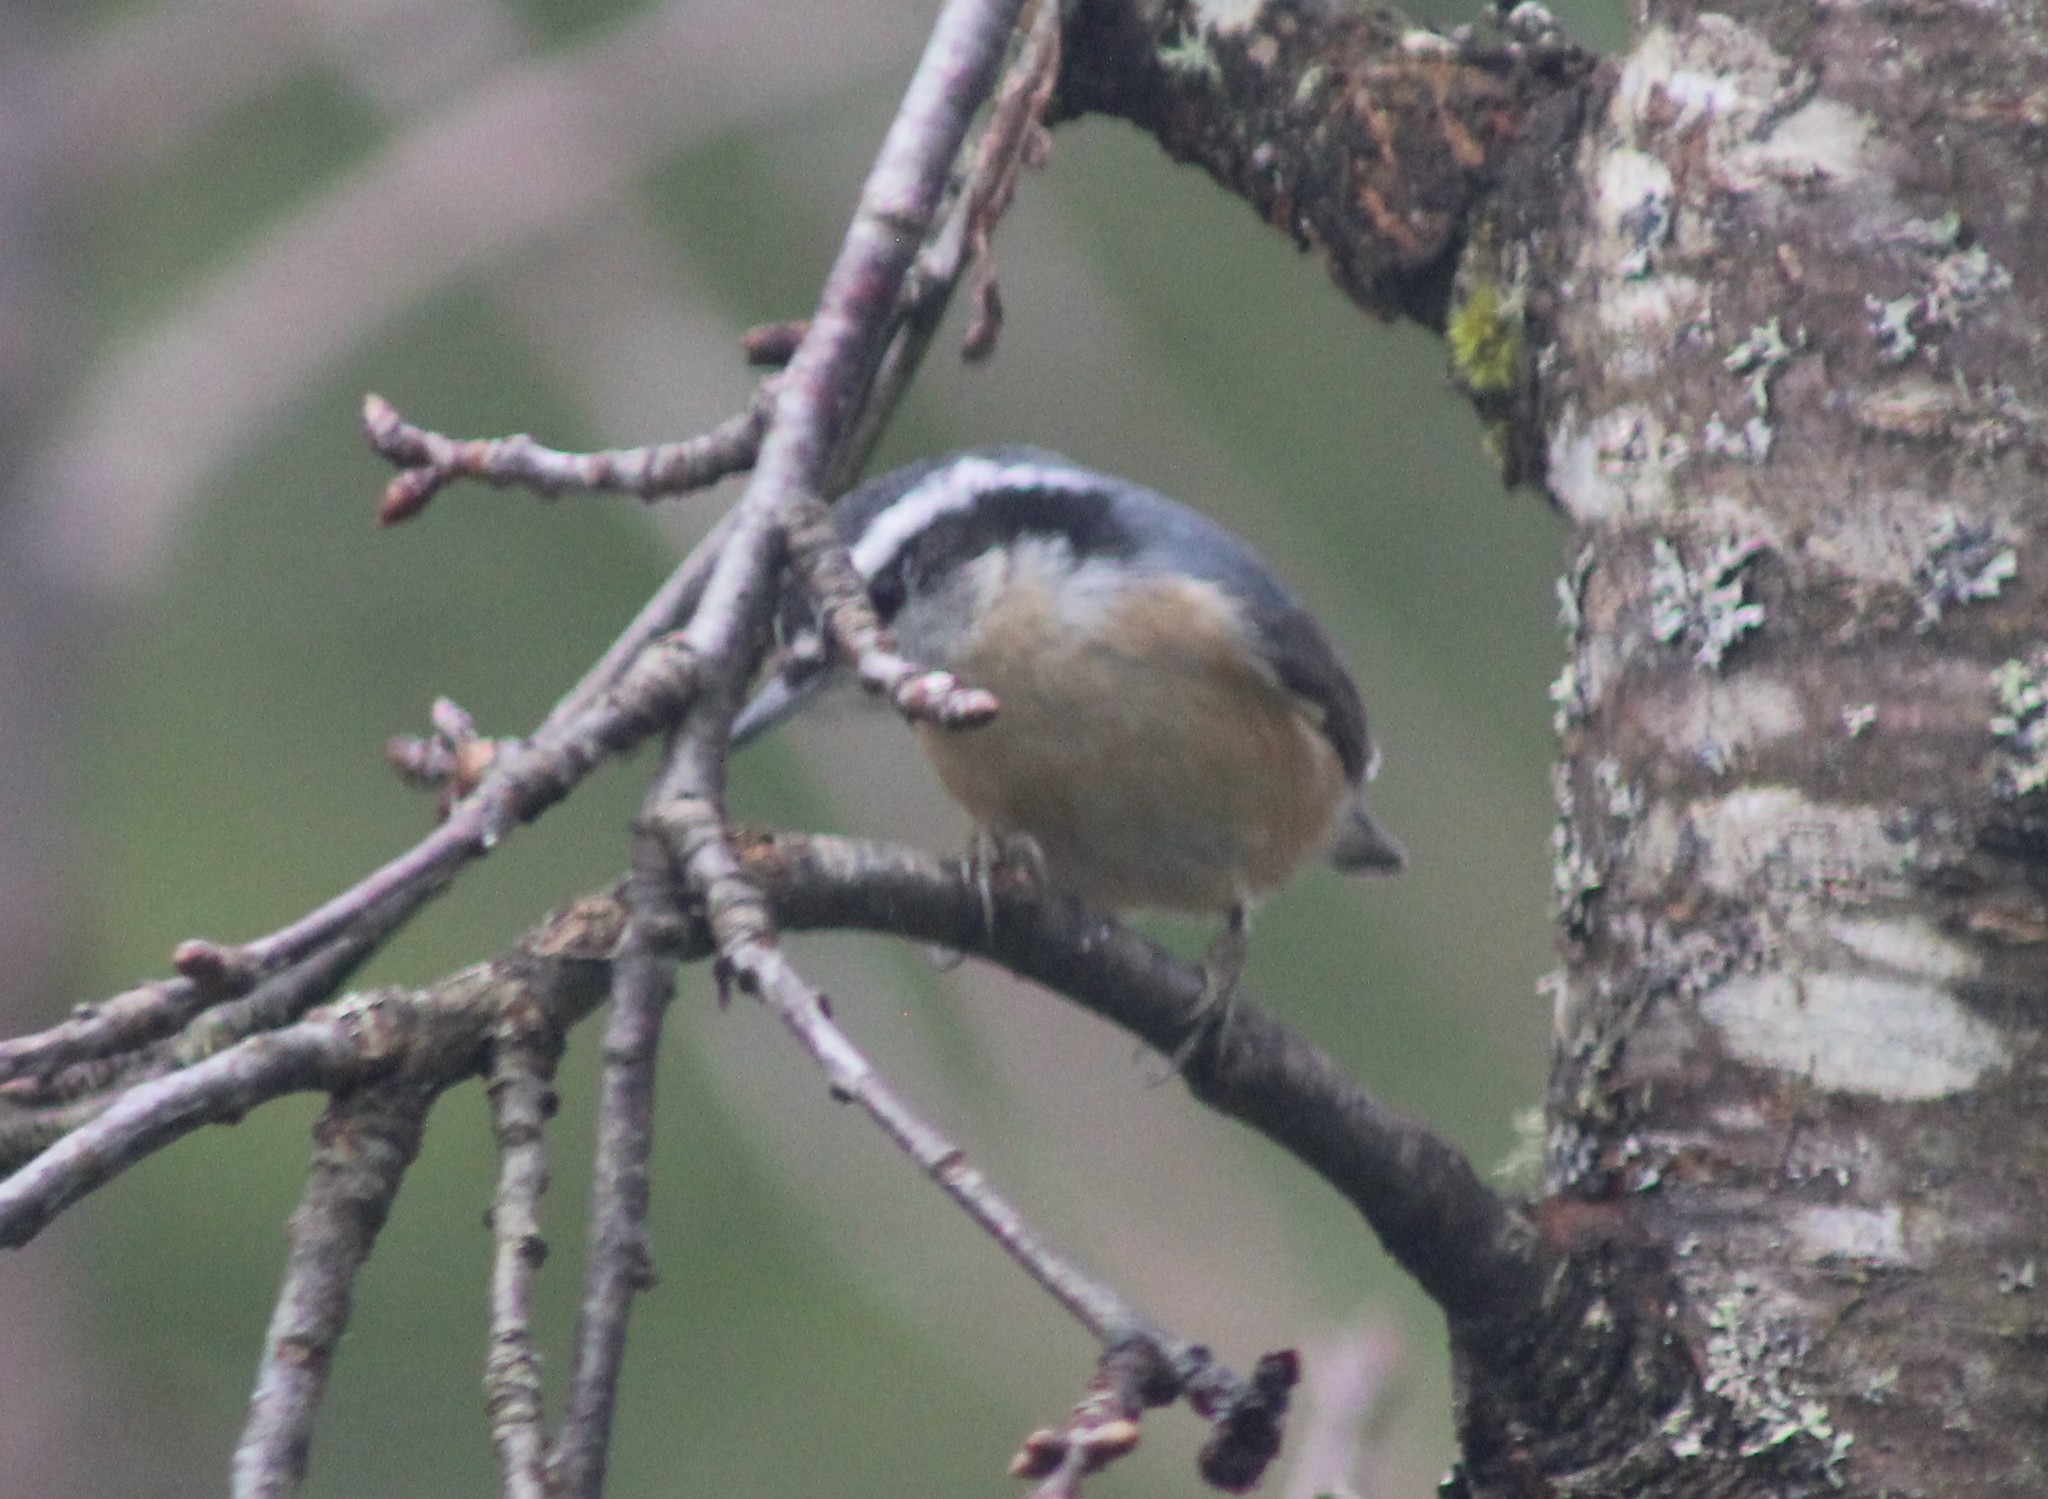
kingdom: Animalia
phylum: Chordata
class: Aves
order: Passeriformes
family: Sittidae
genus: Sitta
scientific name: Sitta canadensis
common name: Red-breasted nuthatch
